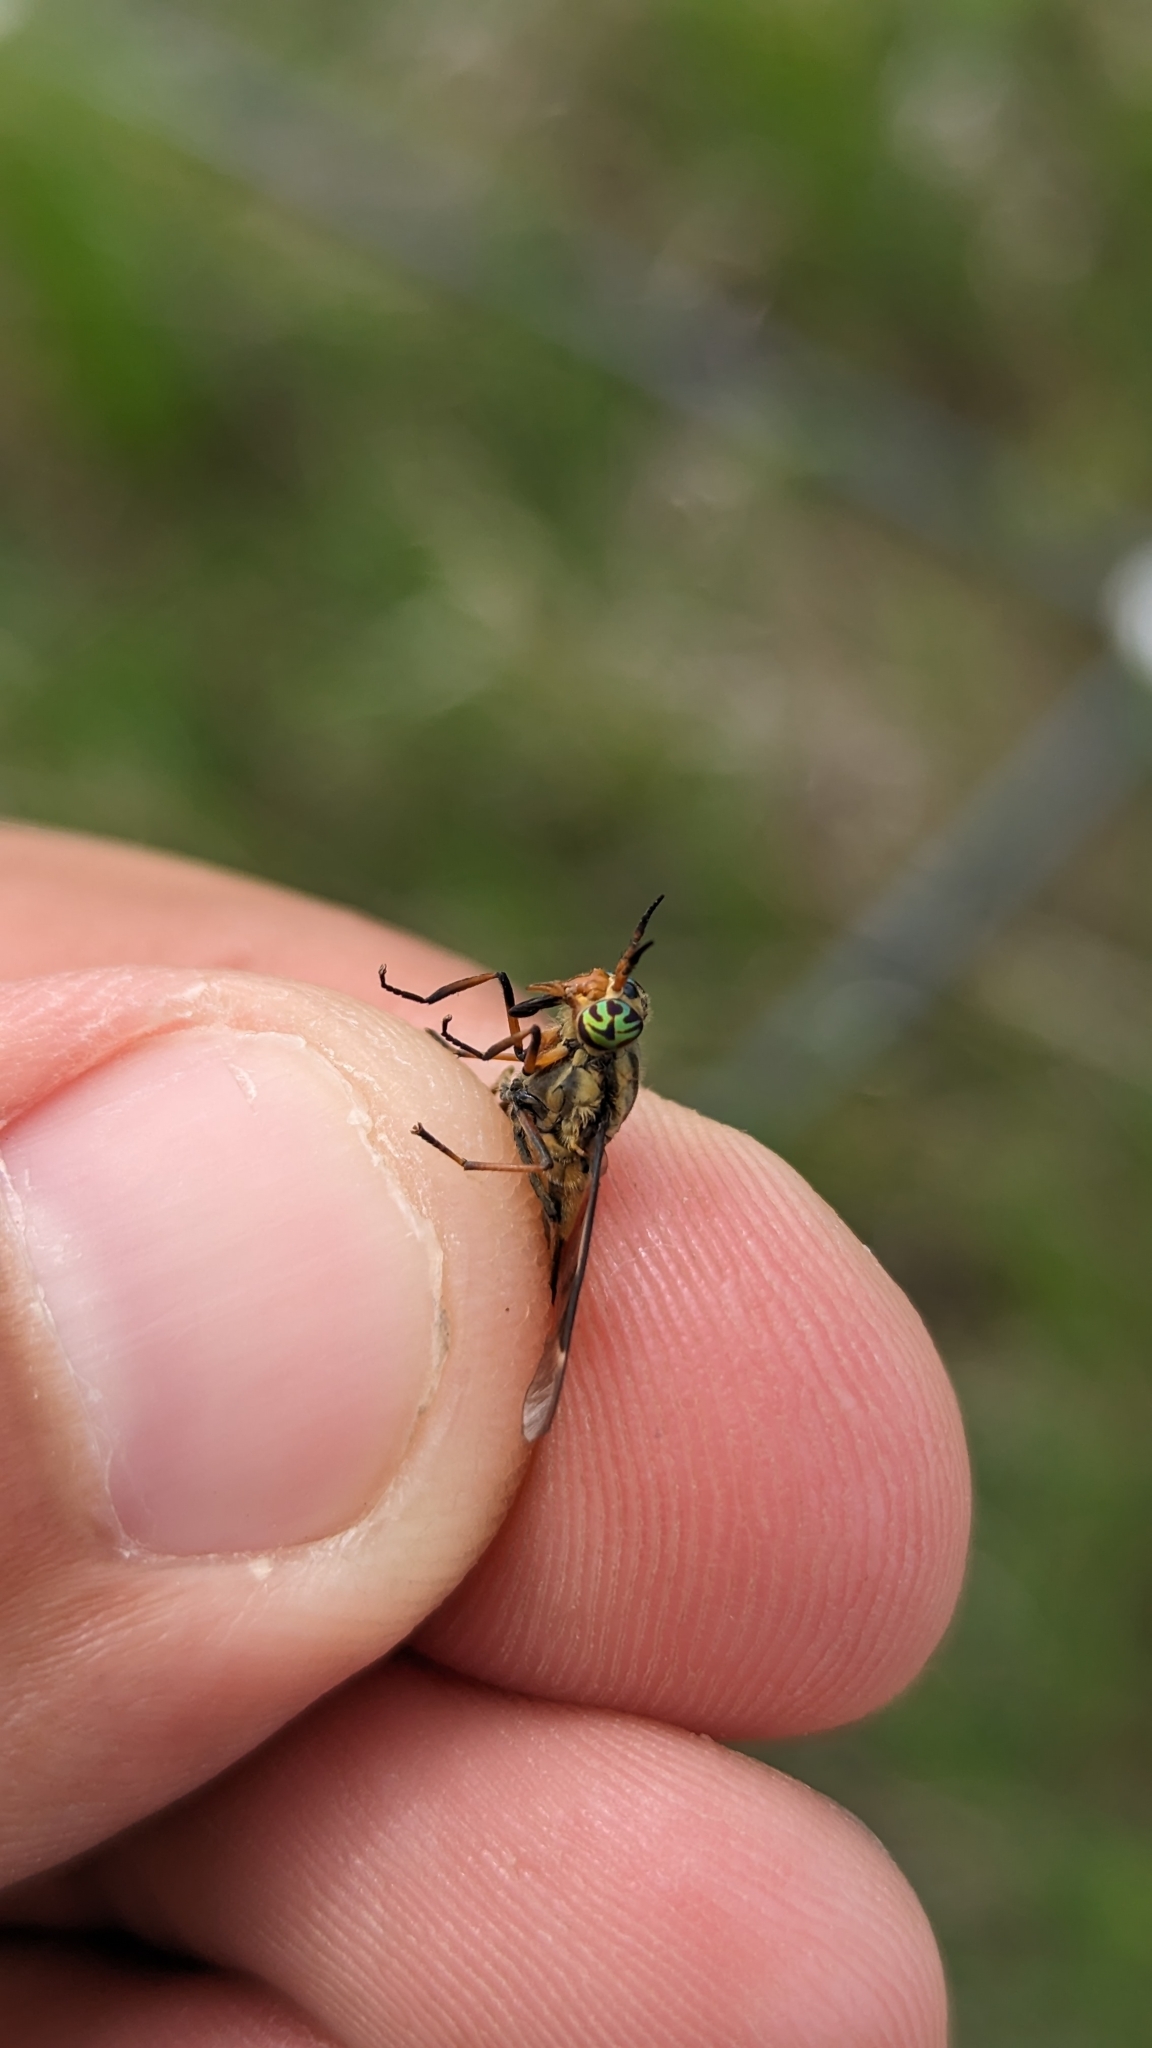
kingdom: Animalia
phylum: Arthropoda
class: Insecta
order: Diptera
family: Tabanidae
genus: Chrysops
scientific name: Chrysops aestuans
